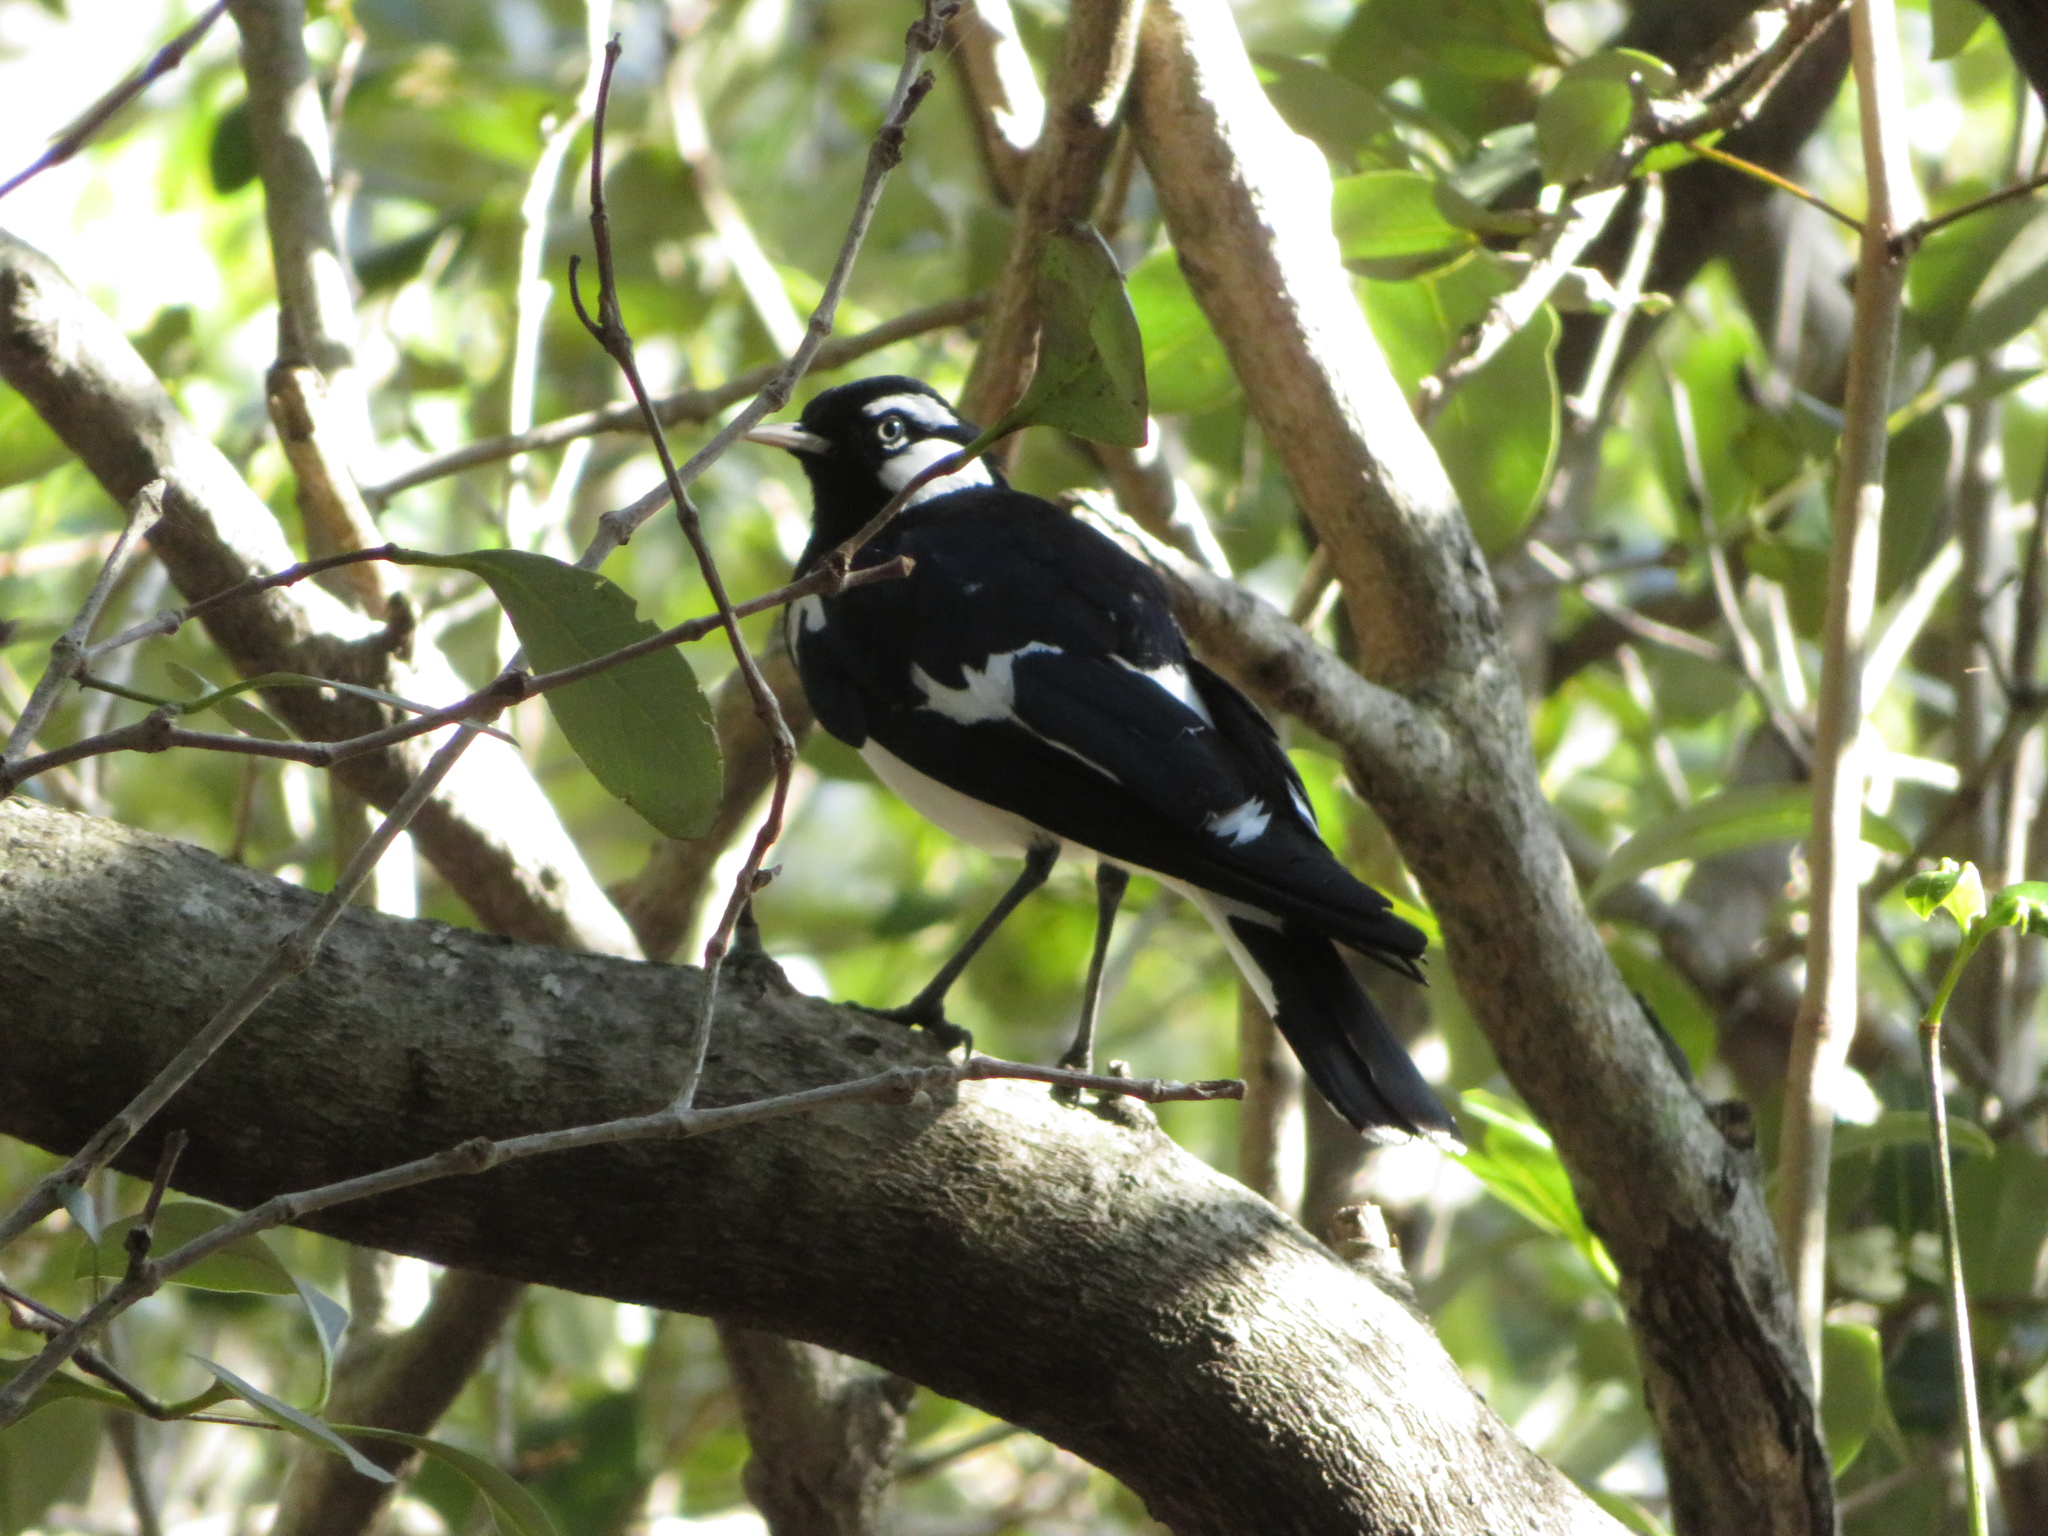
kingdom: Animalia
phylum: Chordata
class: Aves
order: Passeriformes
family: Monarchidae
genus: Grallina
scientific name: Grallina cyanoleuca
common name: Magpie-lark
